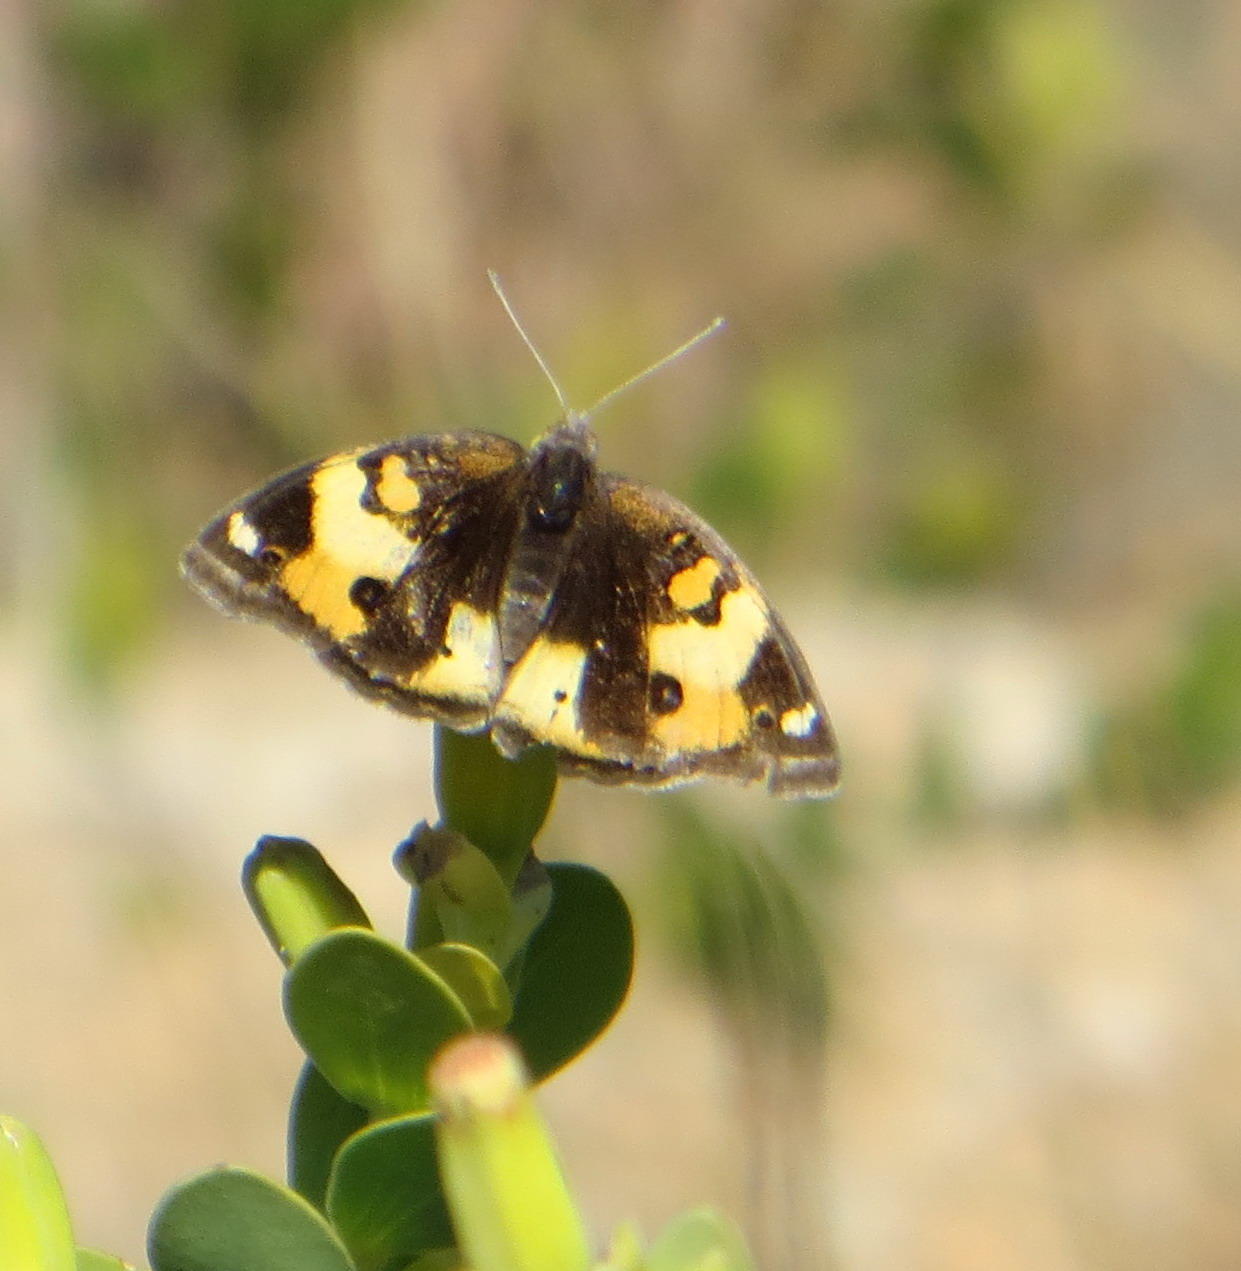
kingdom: Animalia
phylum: Arthropoda
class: Insecta
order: Lepidoptera
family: Nymphalidae
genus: Junonia
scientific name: Junonia hierta
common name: Yellow pansy
